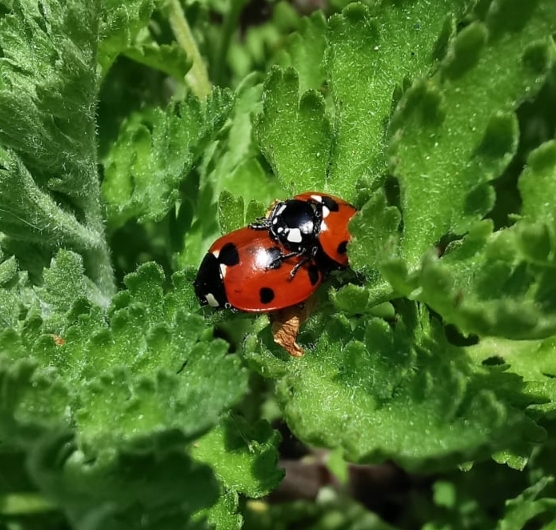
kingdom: Animalia
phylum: Arthropoda
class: Insecta
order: Coleoptera
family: Coccinellidae
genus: Coccinella
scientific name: Coccinella septempunctata
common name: Sevenspotted lady beetle
